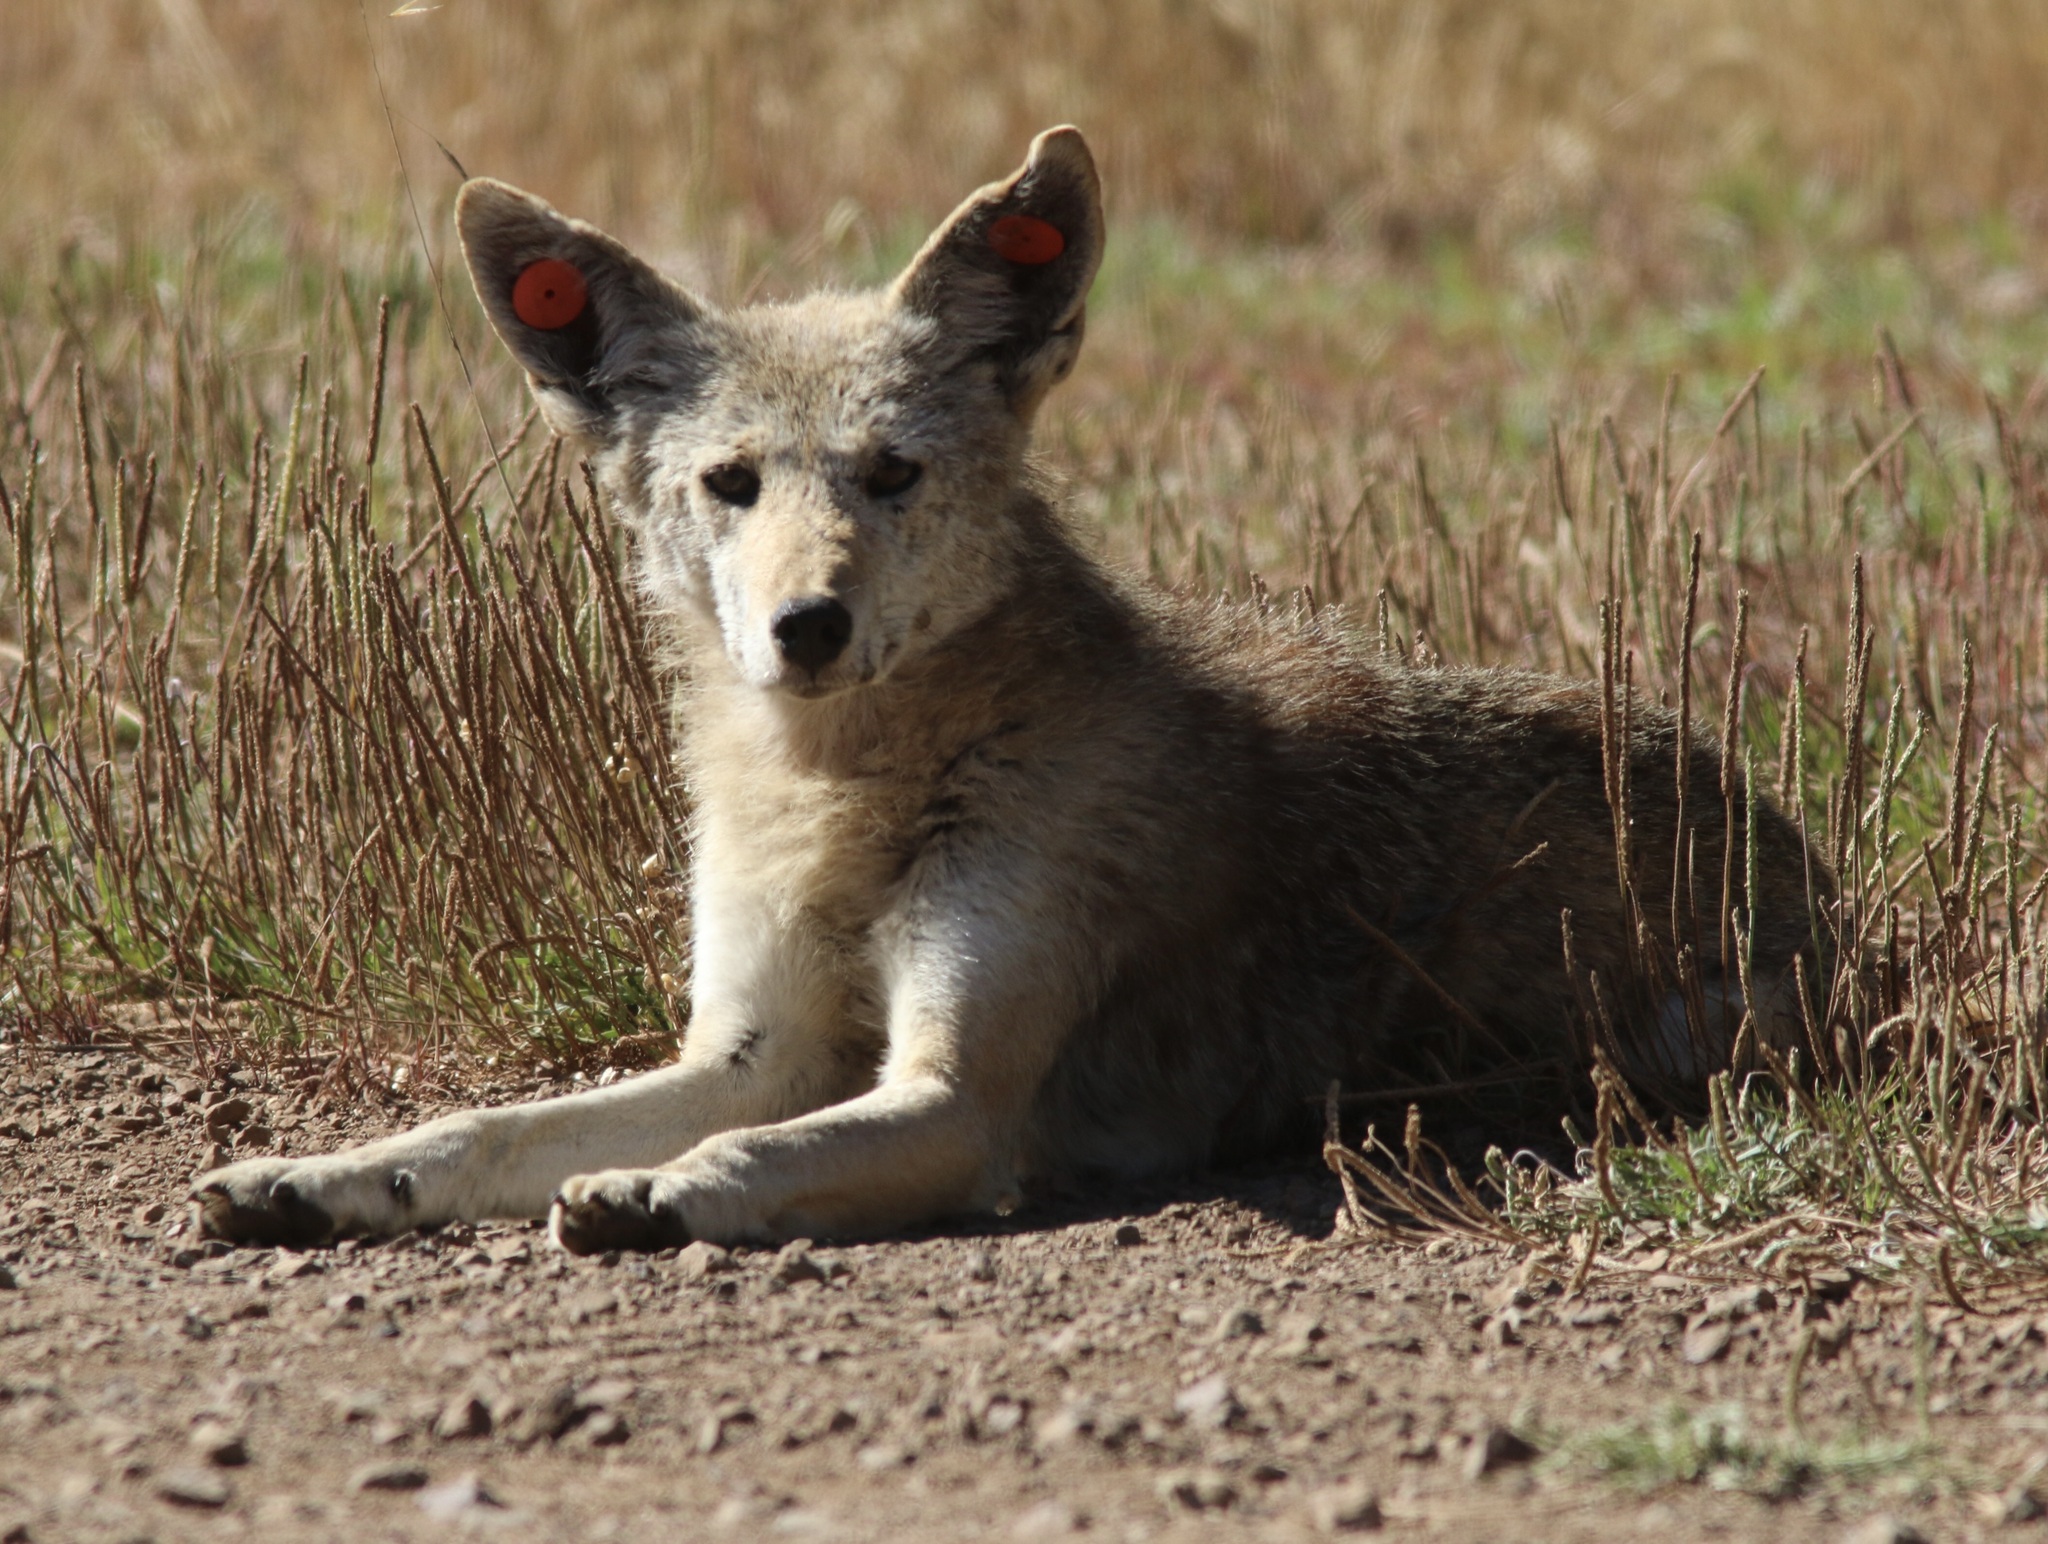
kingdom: Animalia
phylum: Chordata
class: Mammalia
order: Carnivora
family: Canidae
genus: Canis
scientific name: Canis latrans
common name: Coyote
